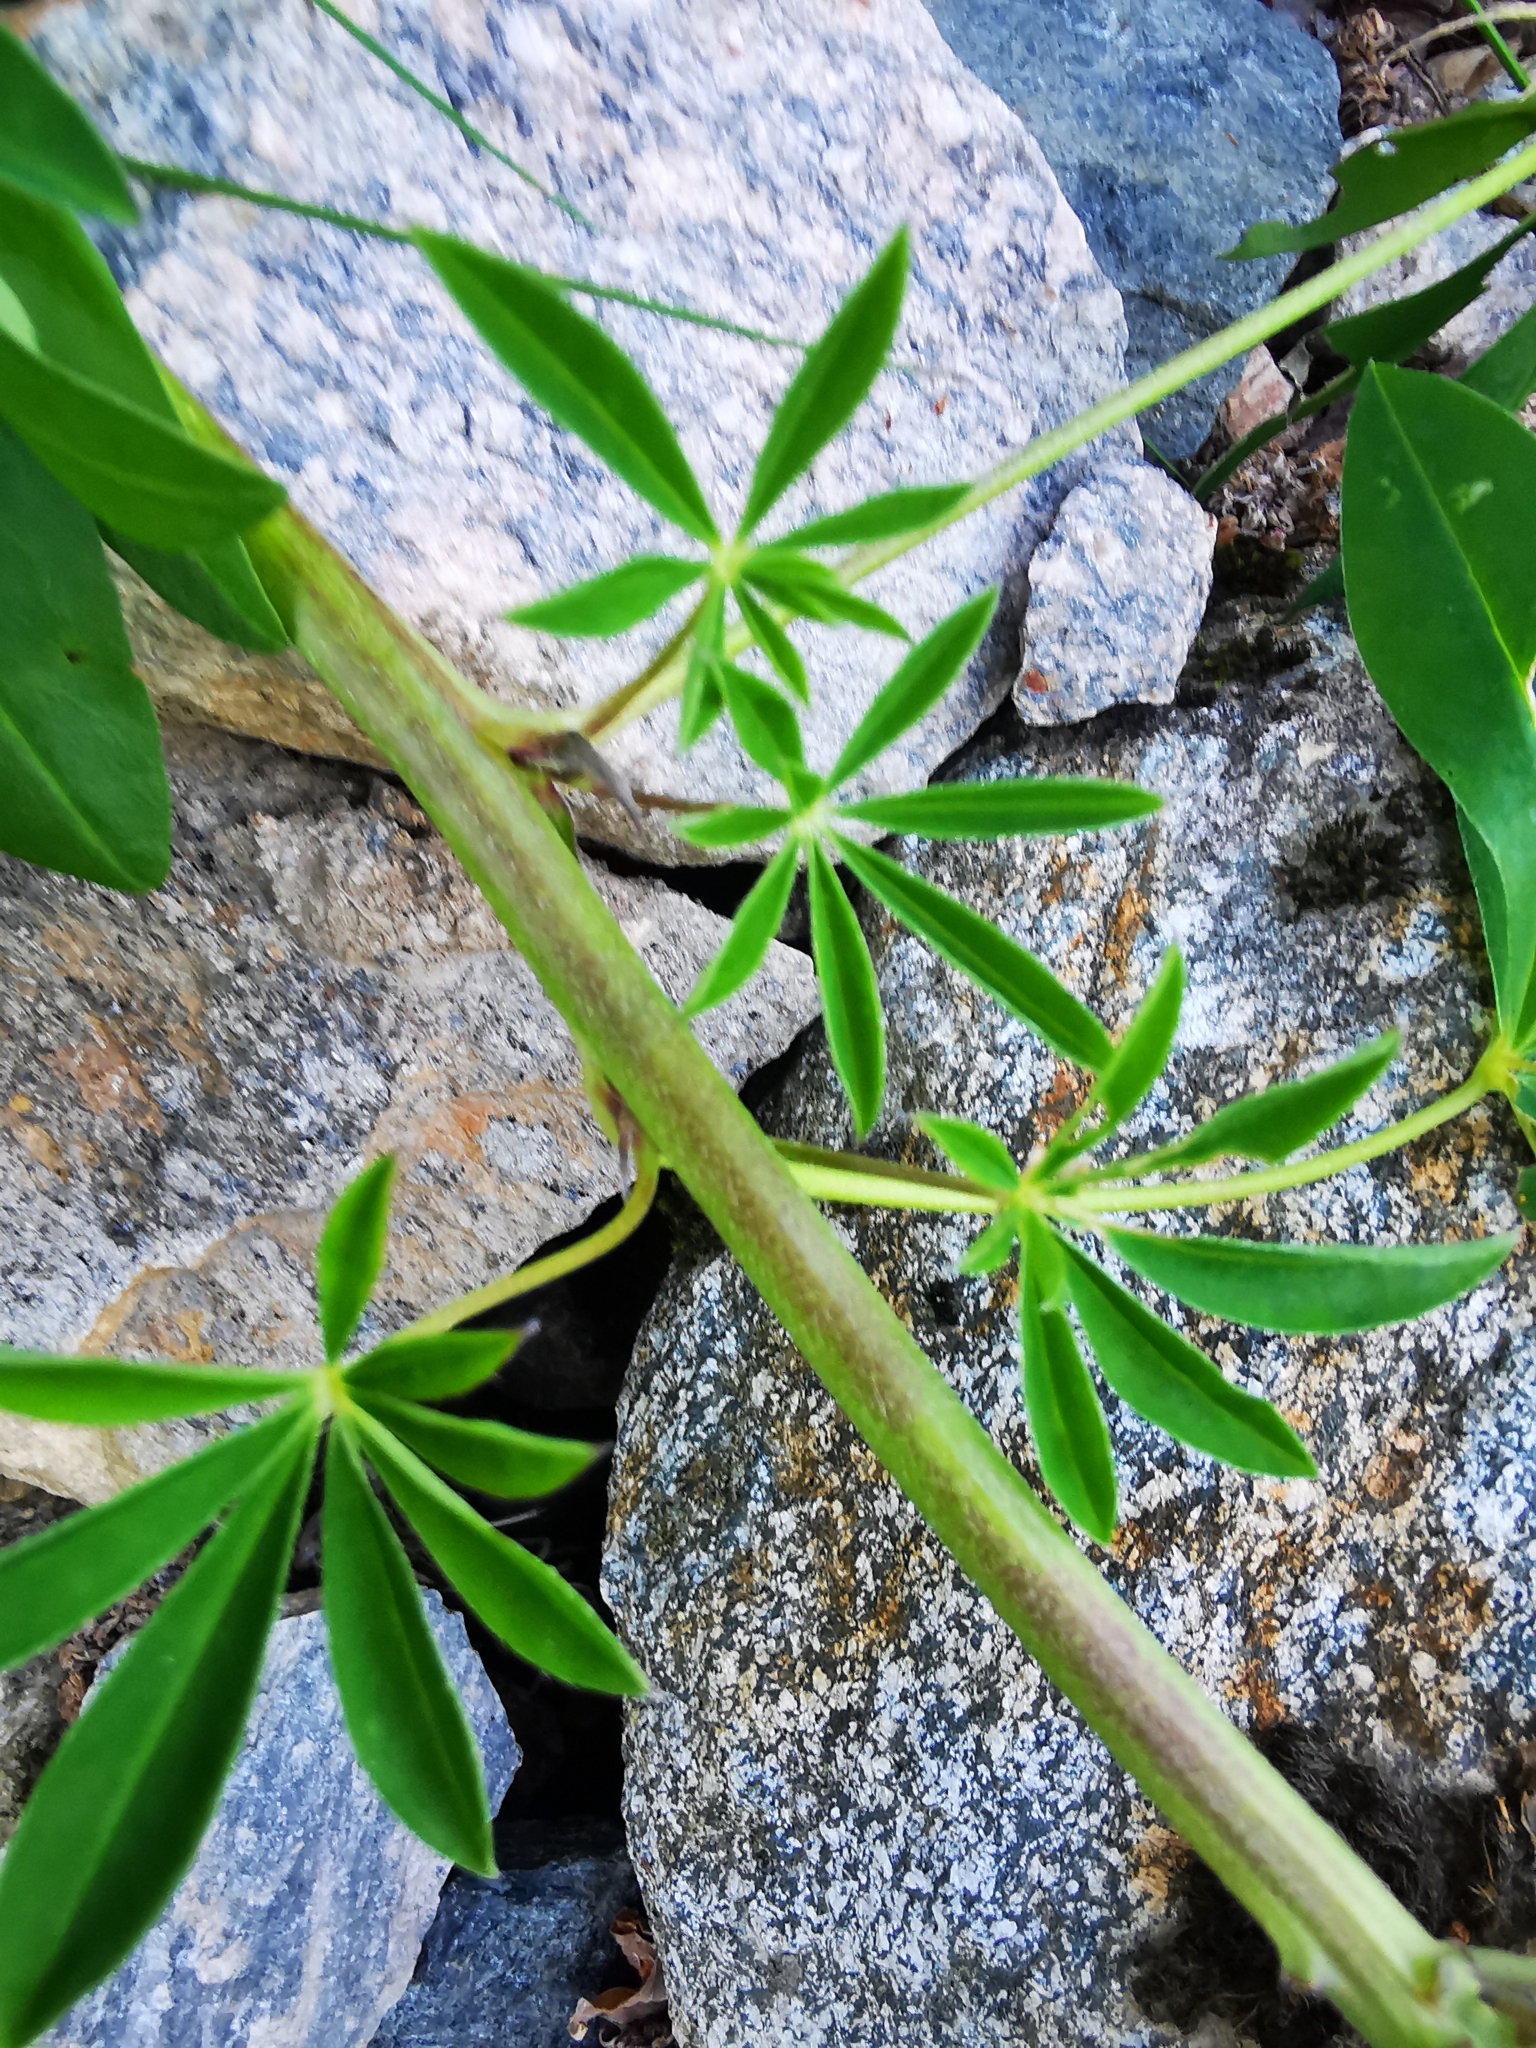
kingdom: Plantae
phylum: Tracheophyta
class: Magnoliopsida
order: Fabales
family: Fabaceae
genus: Lupinus
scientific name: Lupinus polyphyllus
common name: Garden lupin
